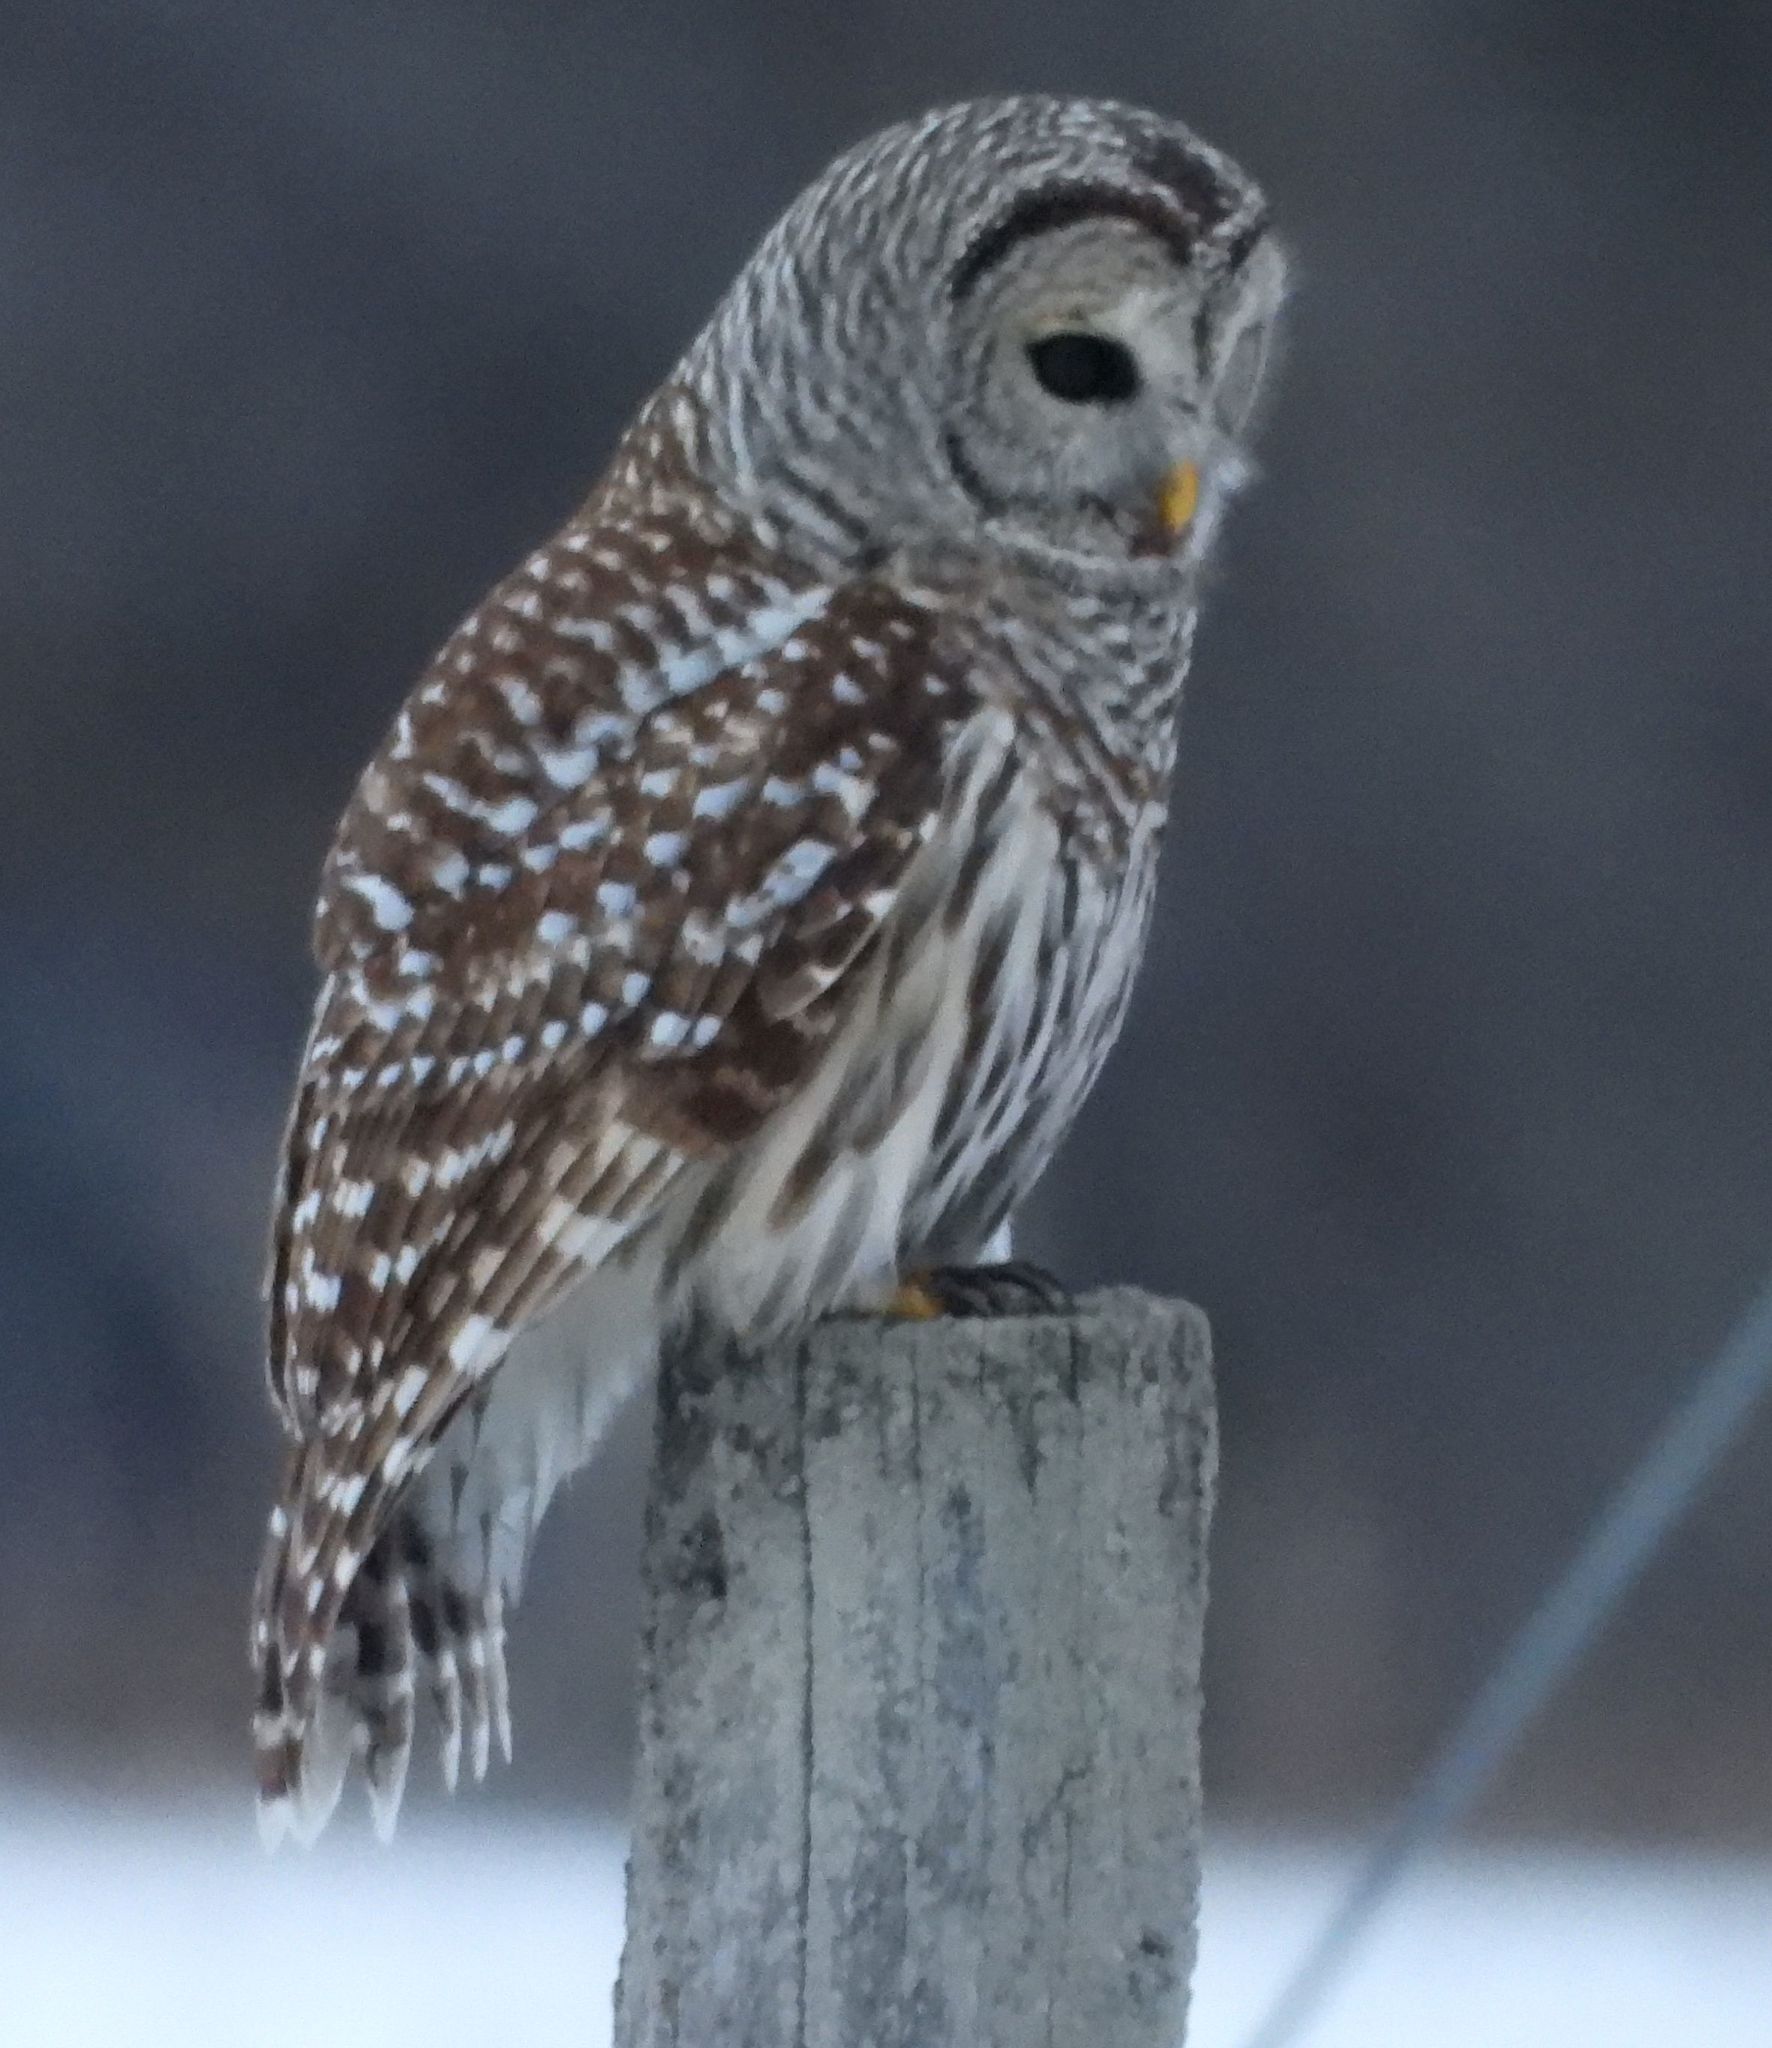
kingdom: Animalia
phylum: Chordata
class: Aves
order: Strigiformes
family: Strigidae
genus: Strix
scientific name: Strix varia
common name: Barred owl
